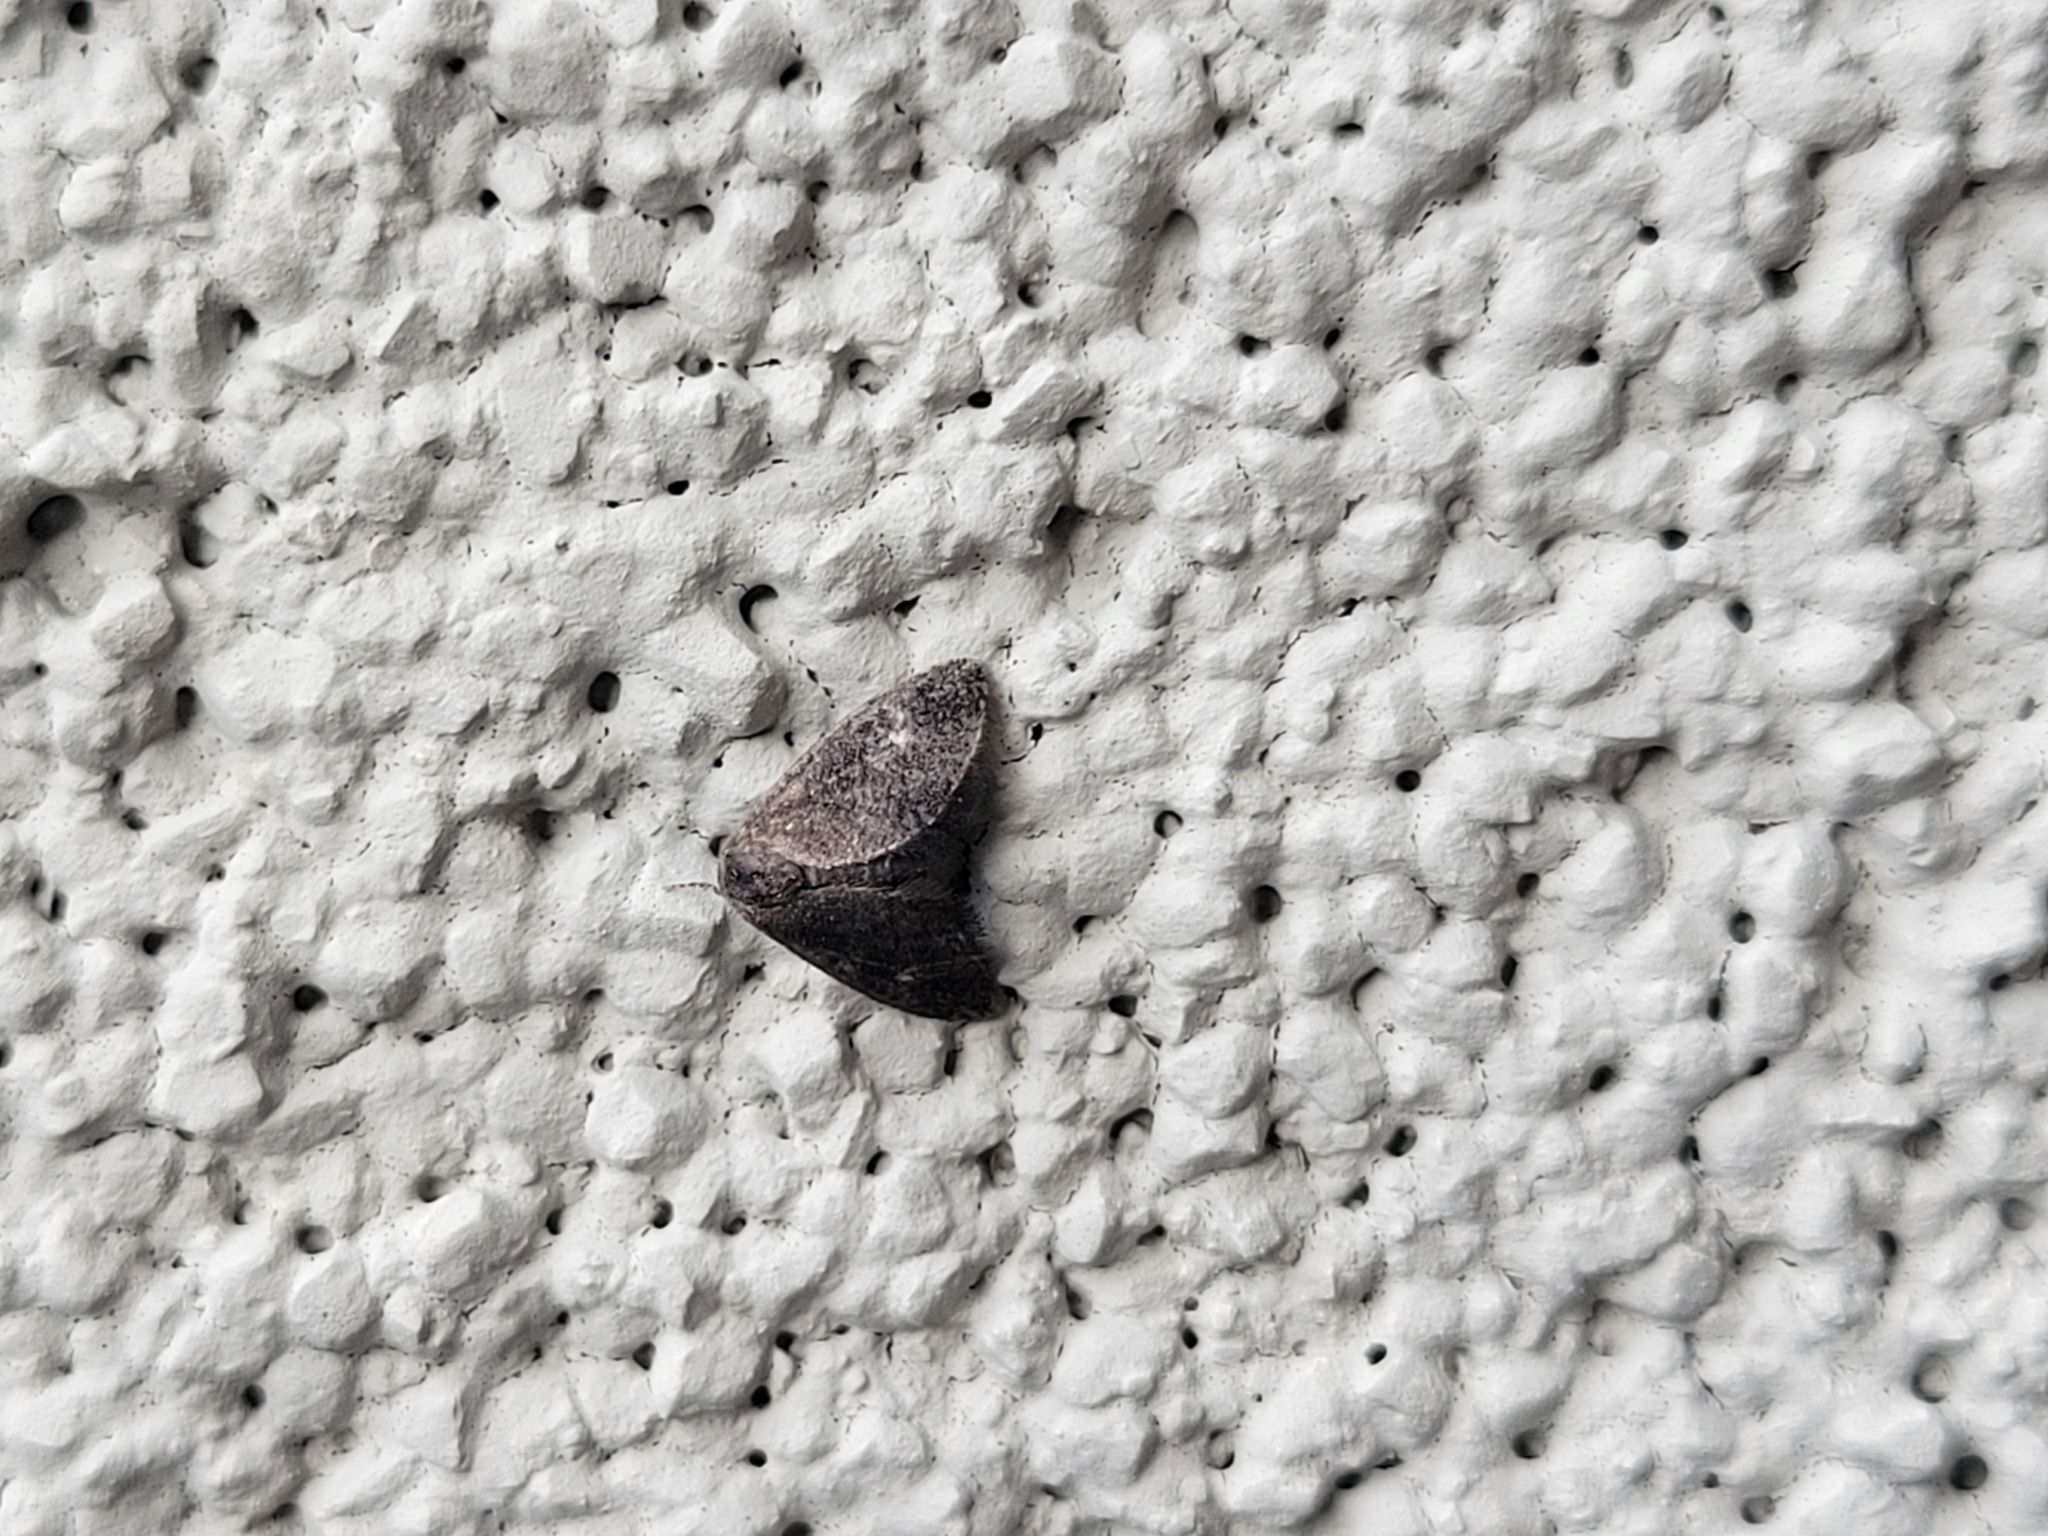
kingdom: Animalia
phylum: Arthropoda
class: Insecta
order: Lepidoptera
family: Epipyropidae
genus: Fulgoraecia
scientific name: Fulgoraecia exigua
